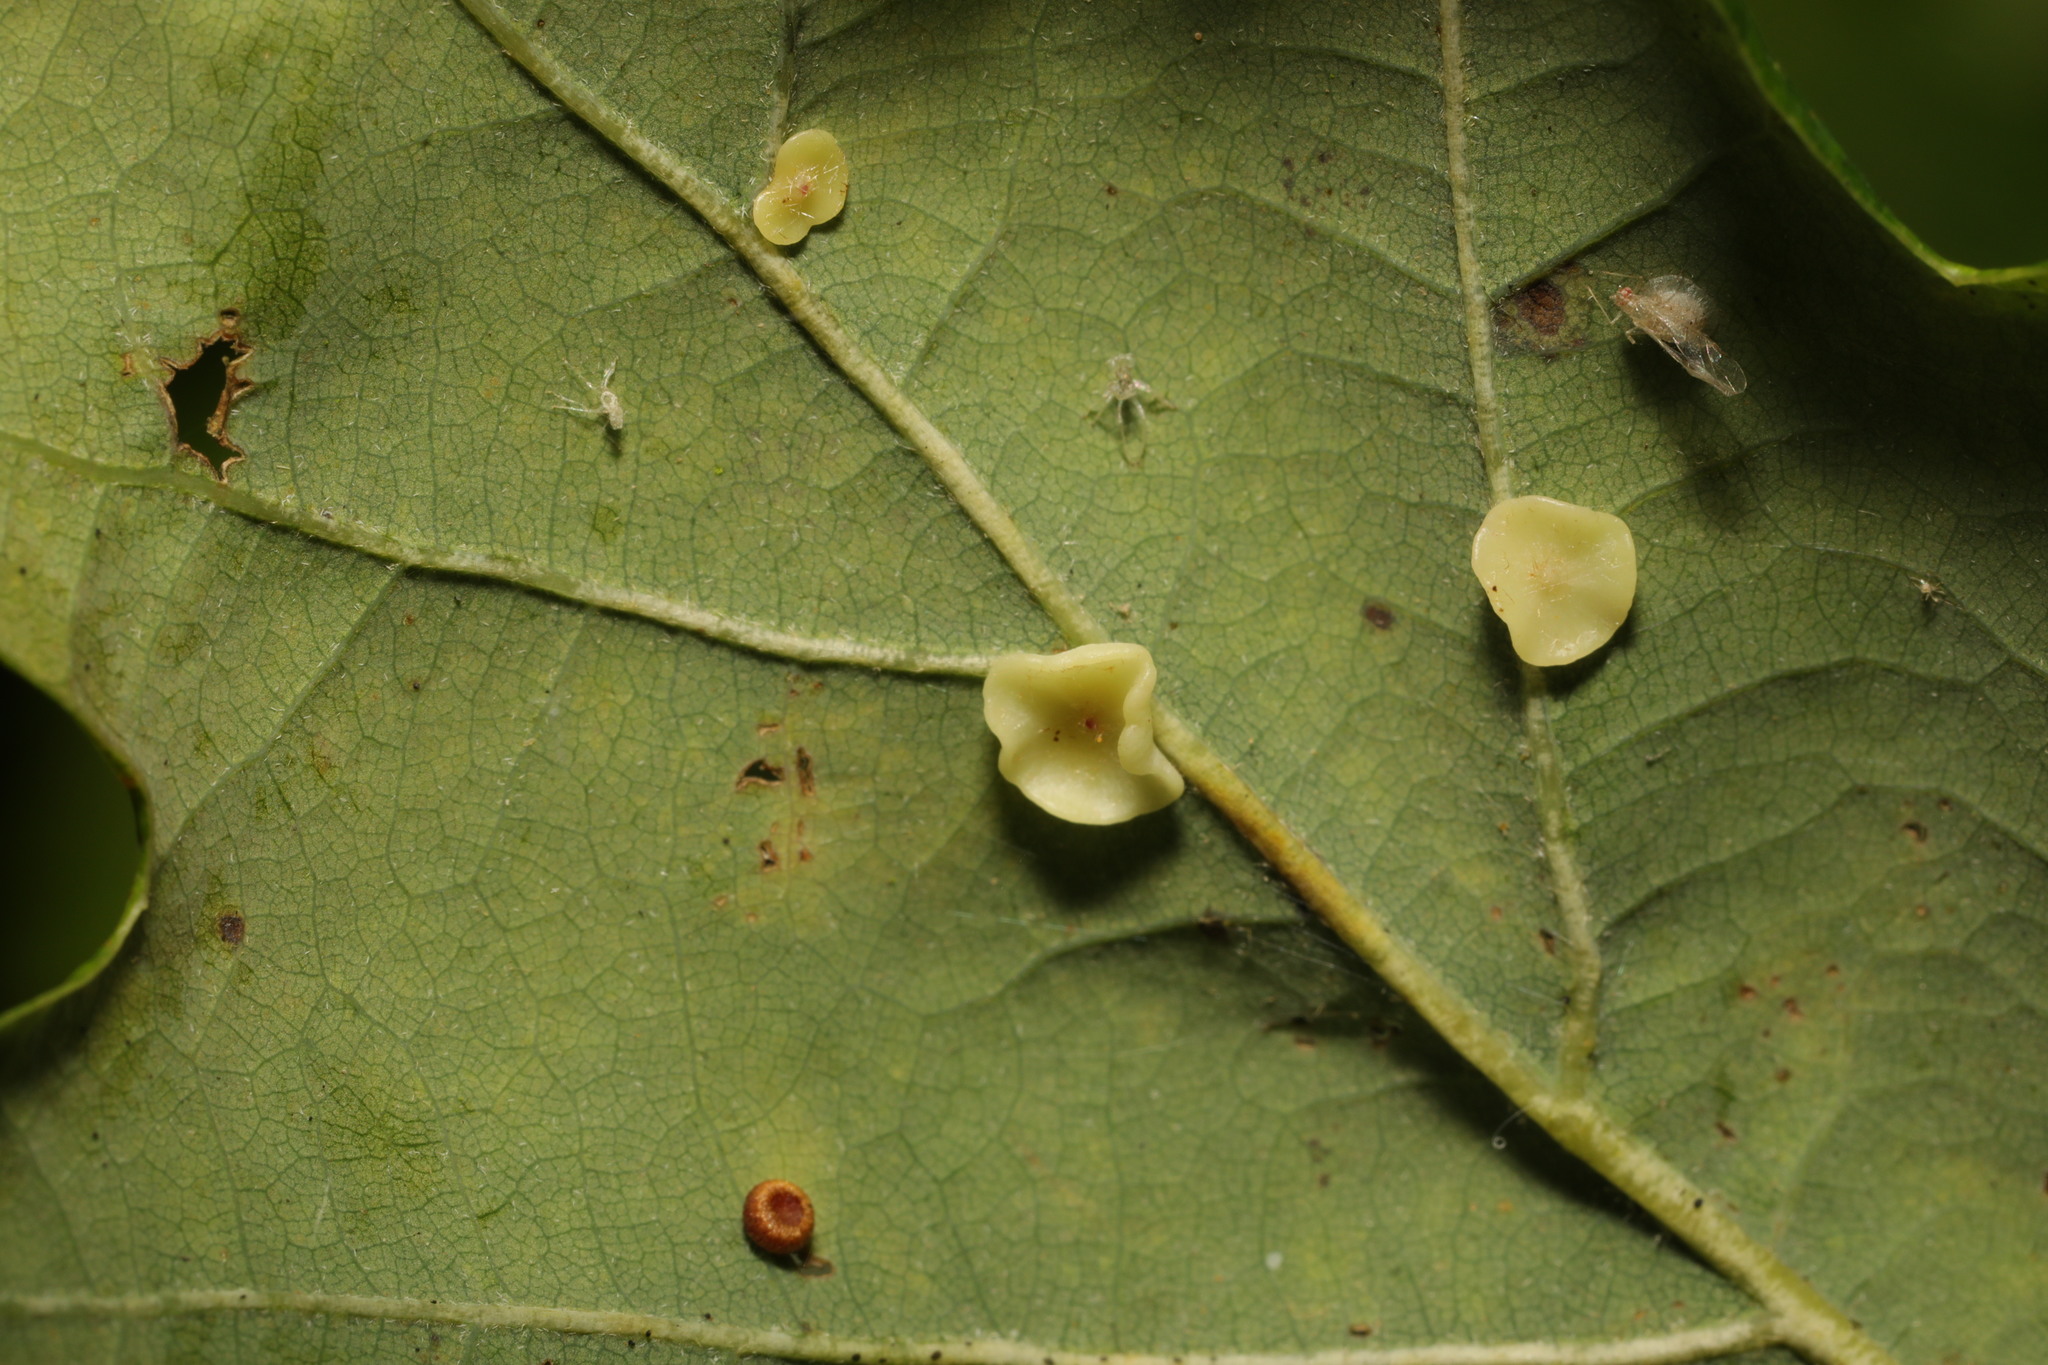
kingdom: Animalia
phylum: Arthropoda
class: Insecta
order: Hymenoptera
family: Cynipidae
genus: Neuroterus
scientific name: Neuroterus albipes
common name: Smooth spangle gall
